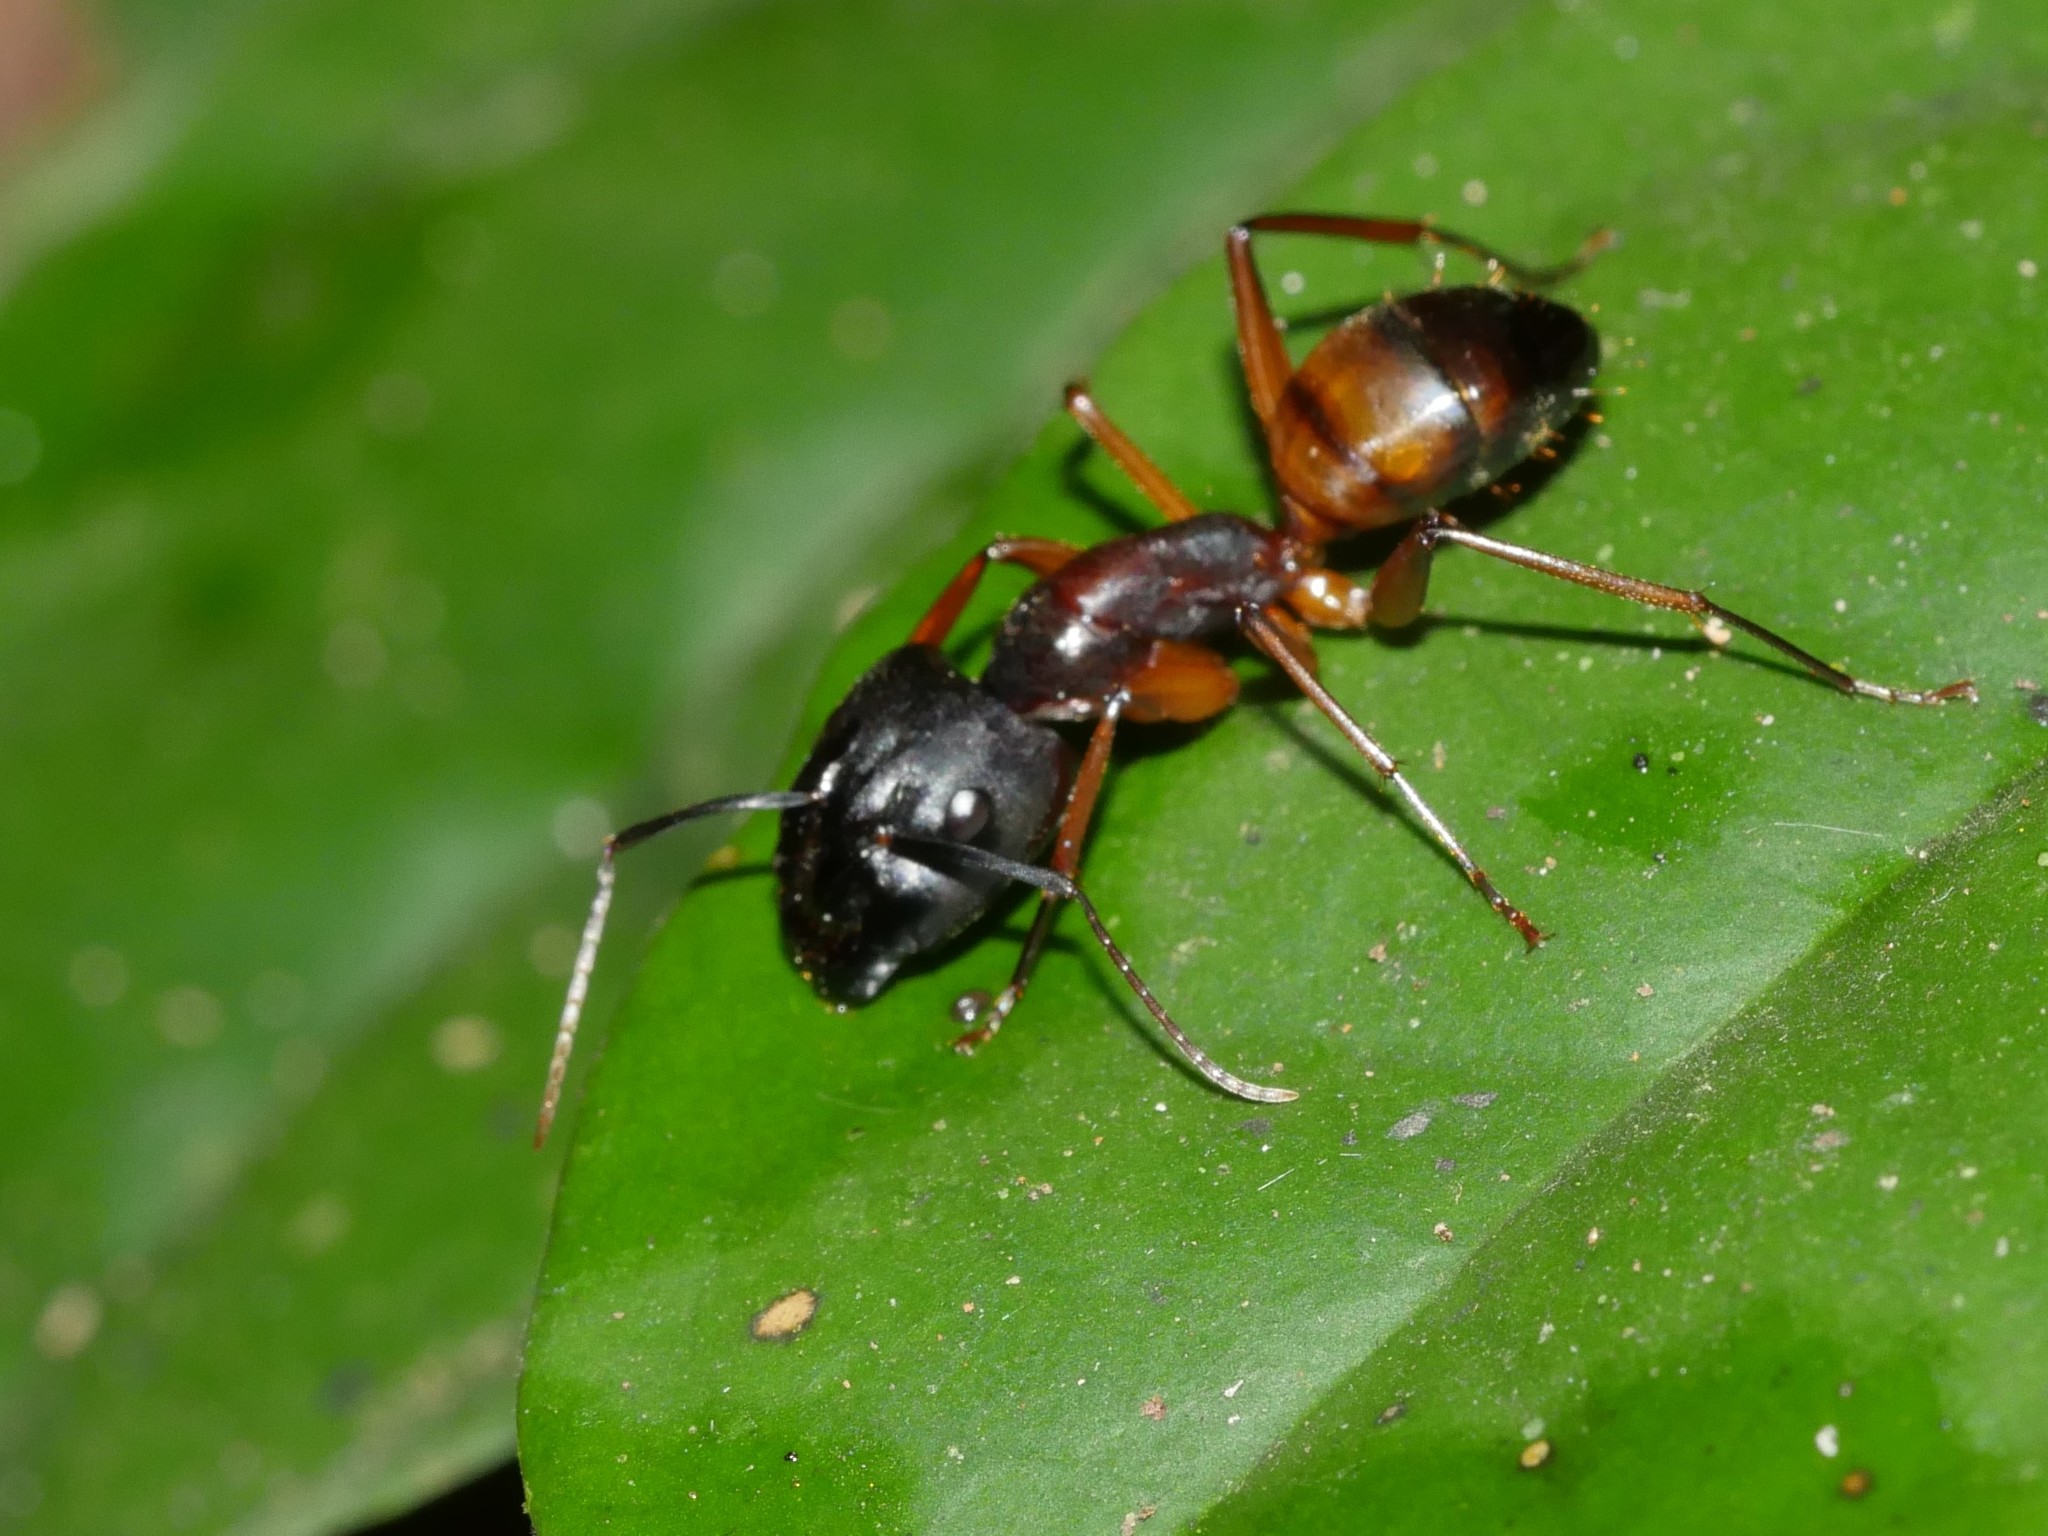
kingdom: Animalia
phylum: Arthropoda
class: Insecta
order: Hymenoptera
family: Formicidae
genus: Camponotus
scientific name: Camponotus brutus
